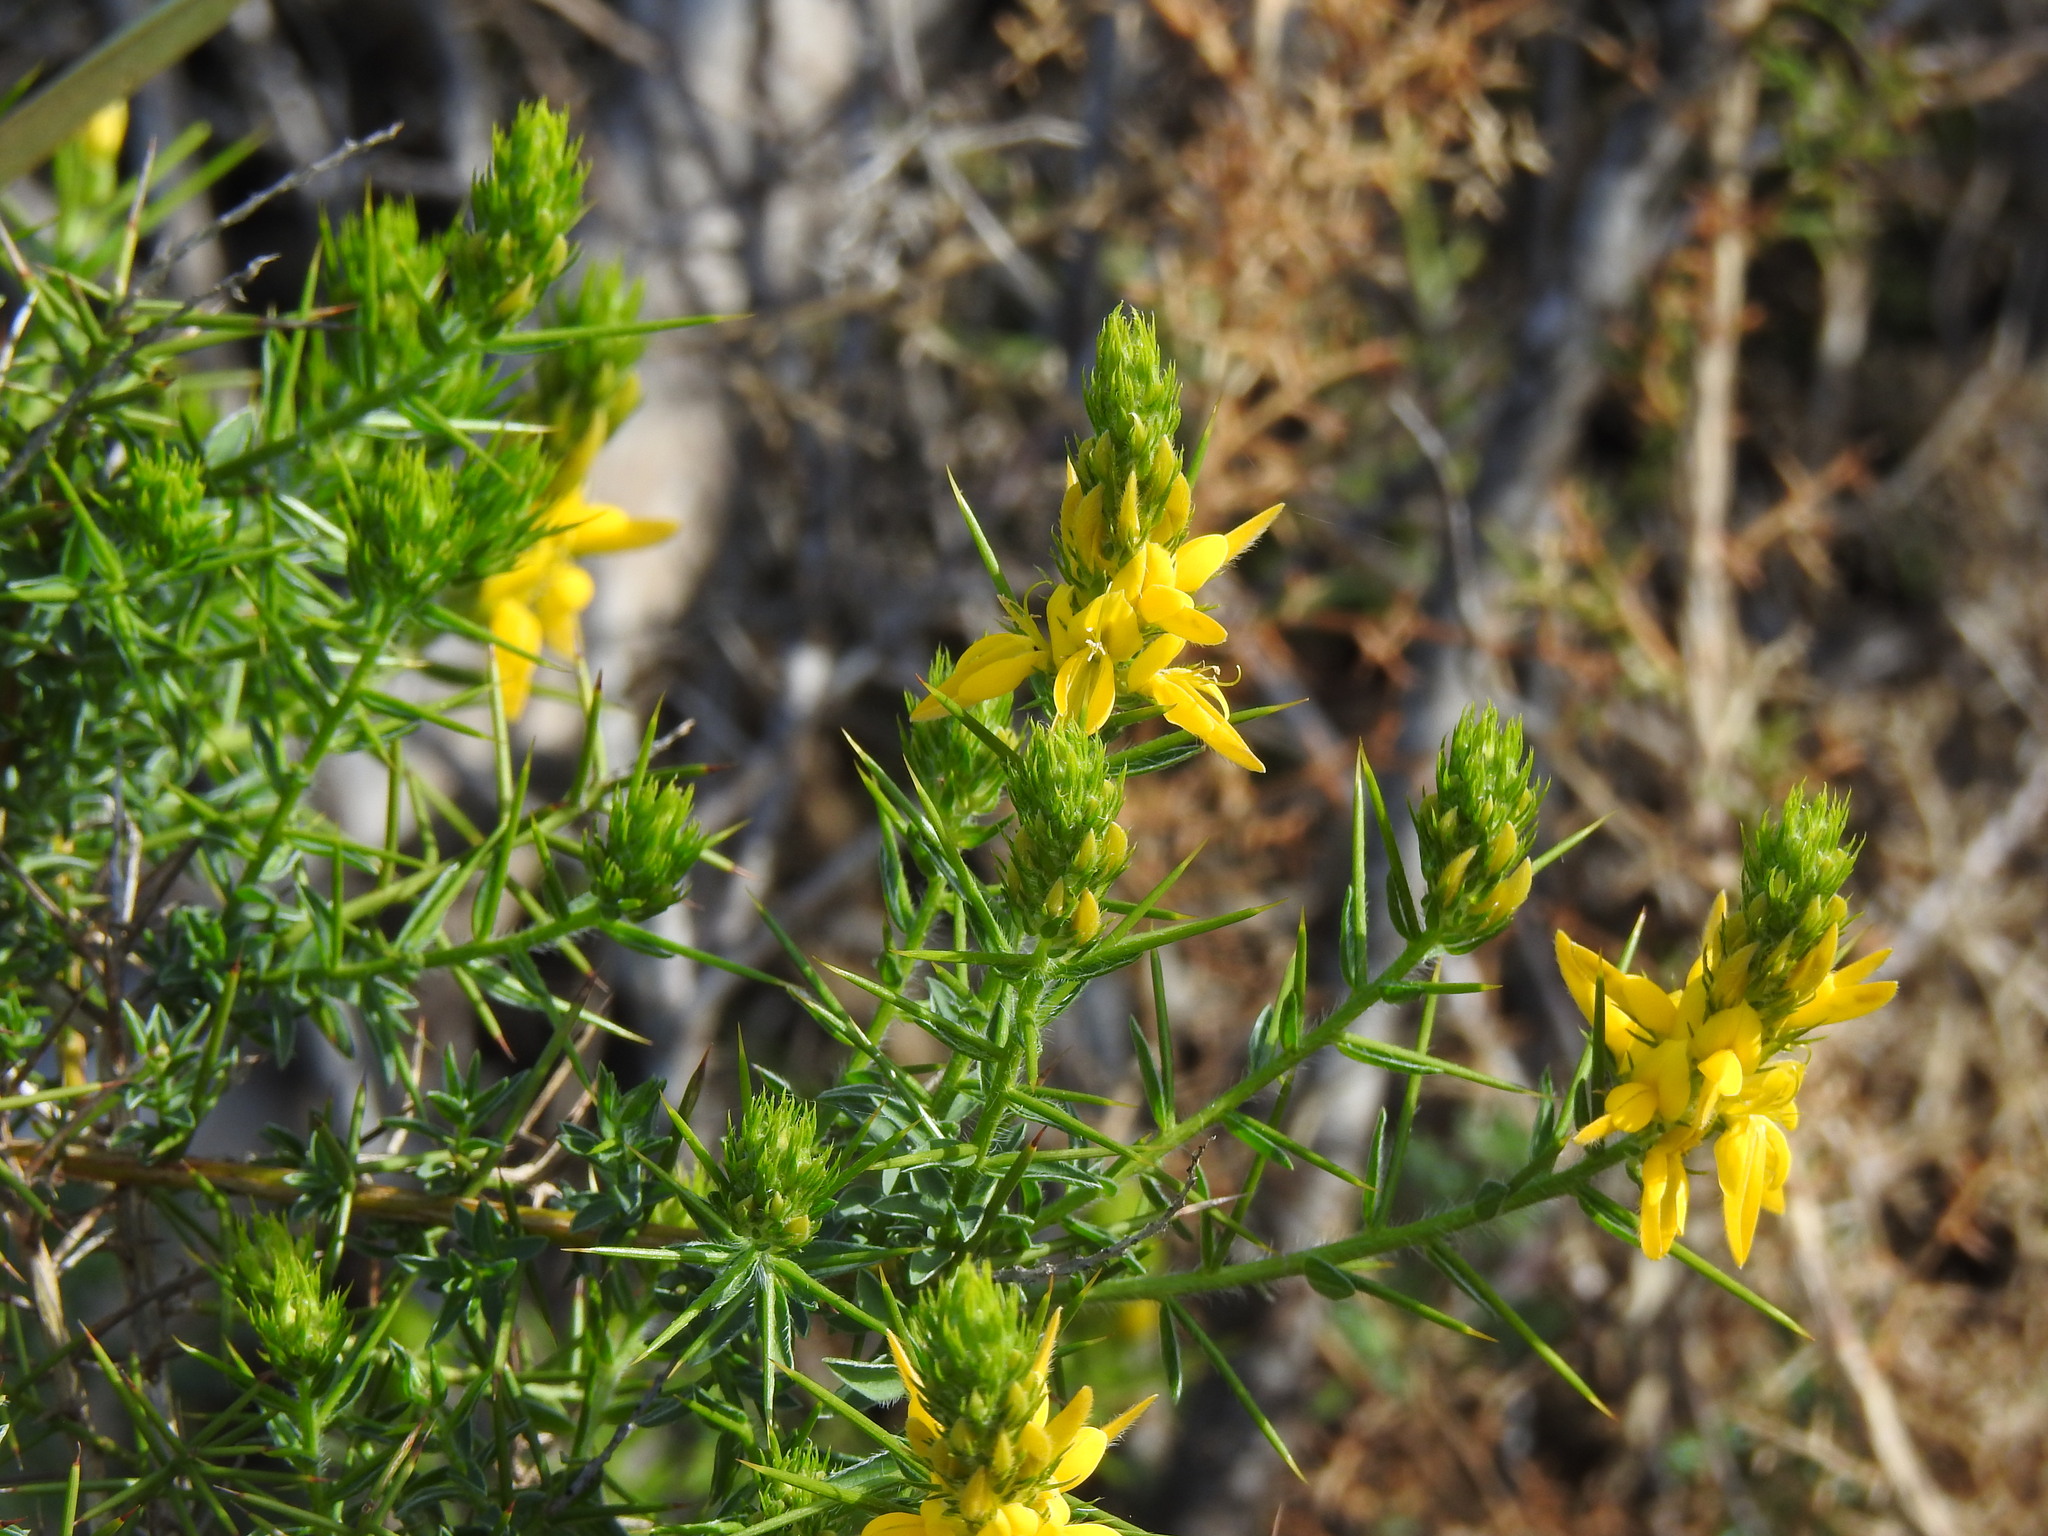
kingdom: Plantae
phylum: Tracheophyta
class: Magnoliopsida
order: Fabales
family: Fabaceae
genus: Genista
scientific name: Genista hirsuta
